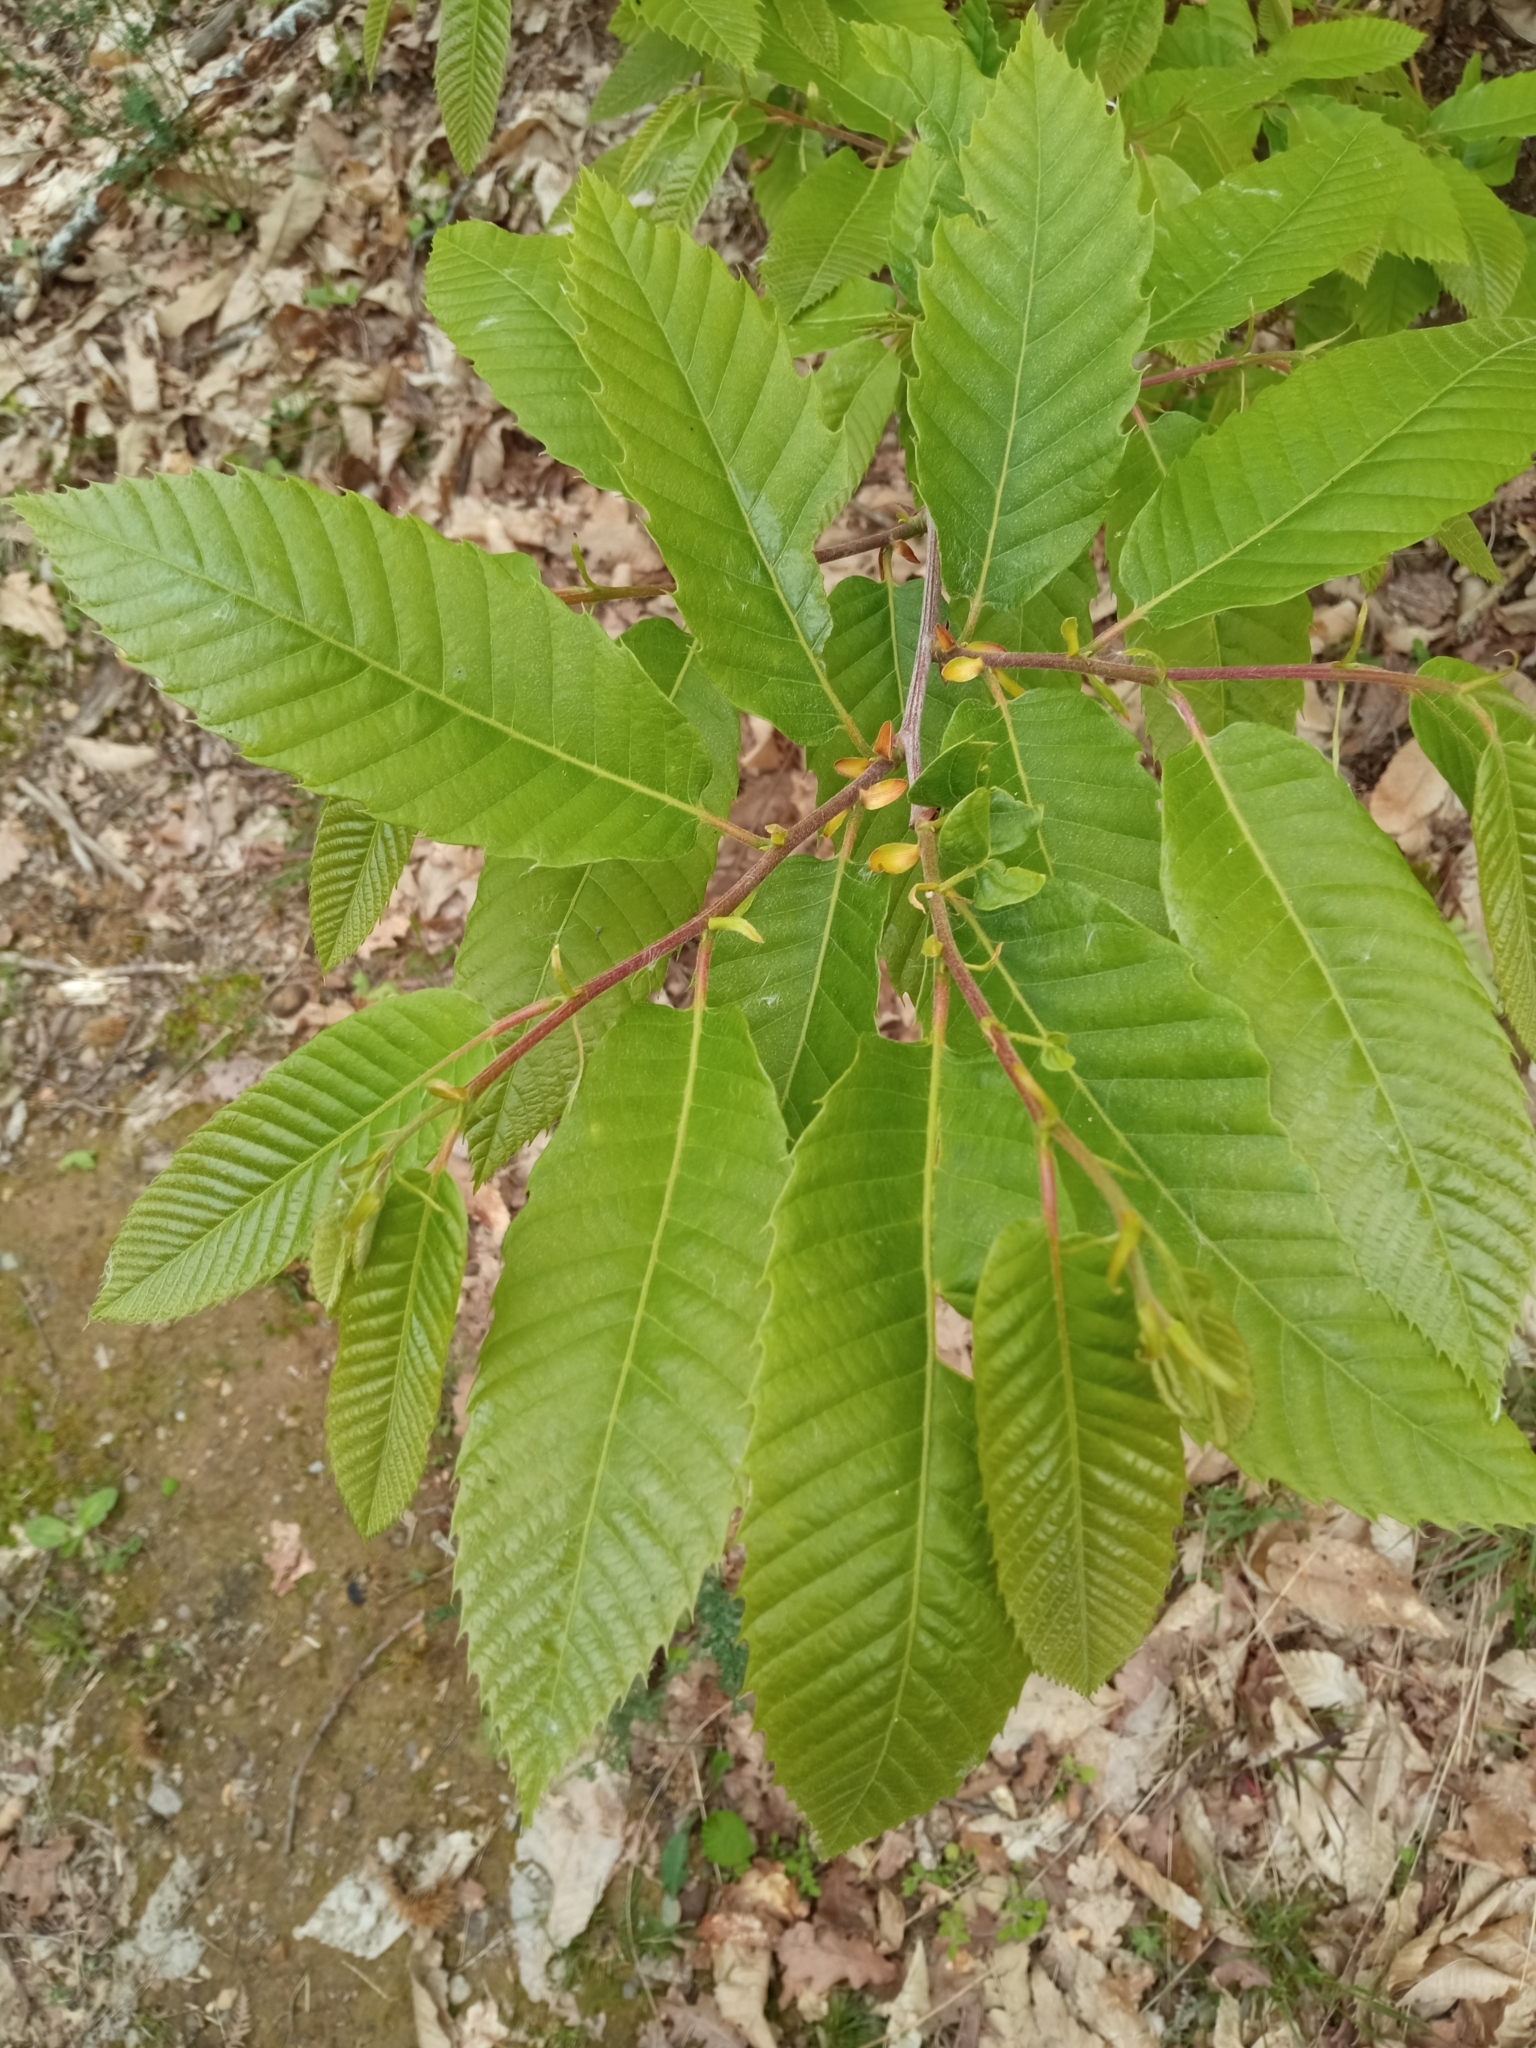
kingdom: Plantae
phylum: Tracheophyta
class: Magnoliopsida
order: Fagales
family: Fagaceae
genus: Castanea
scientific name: Castanea sativa
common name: Sweet chestnut
